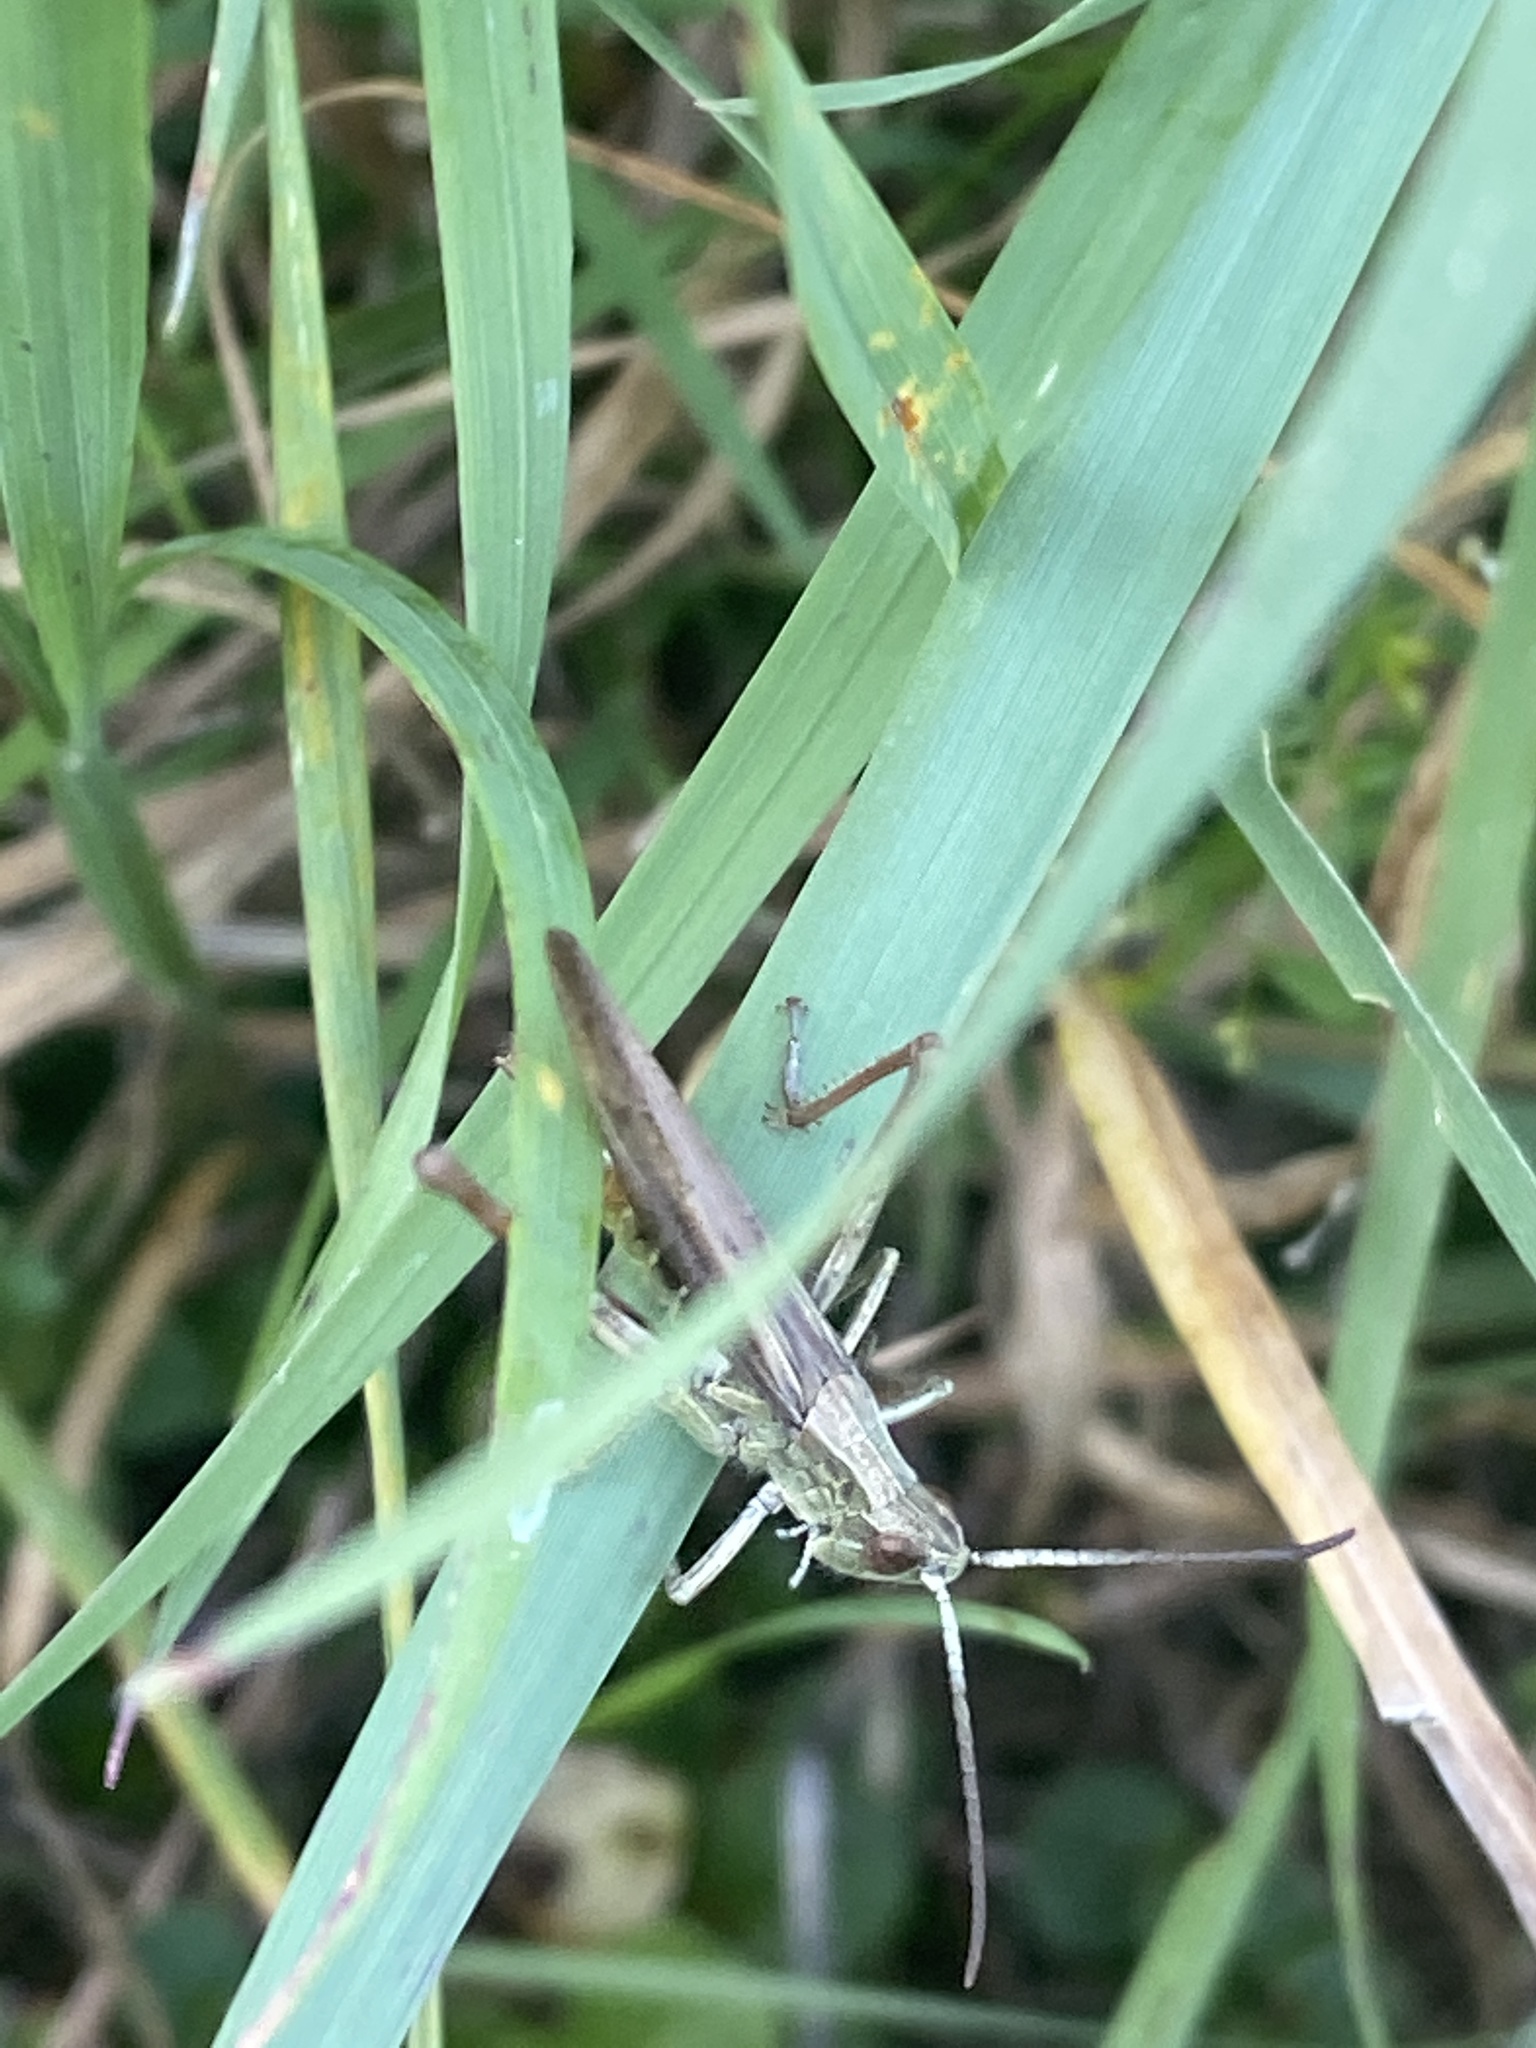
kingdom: Animalia
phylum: Arthropoda
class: Insecta
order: Orthoptera
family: Acrididae
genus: Chorthippus
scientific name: Chorthippus dorsatus
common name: Steppe grasshopper
